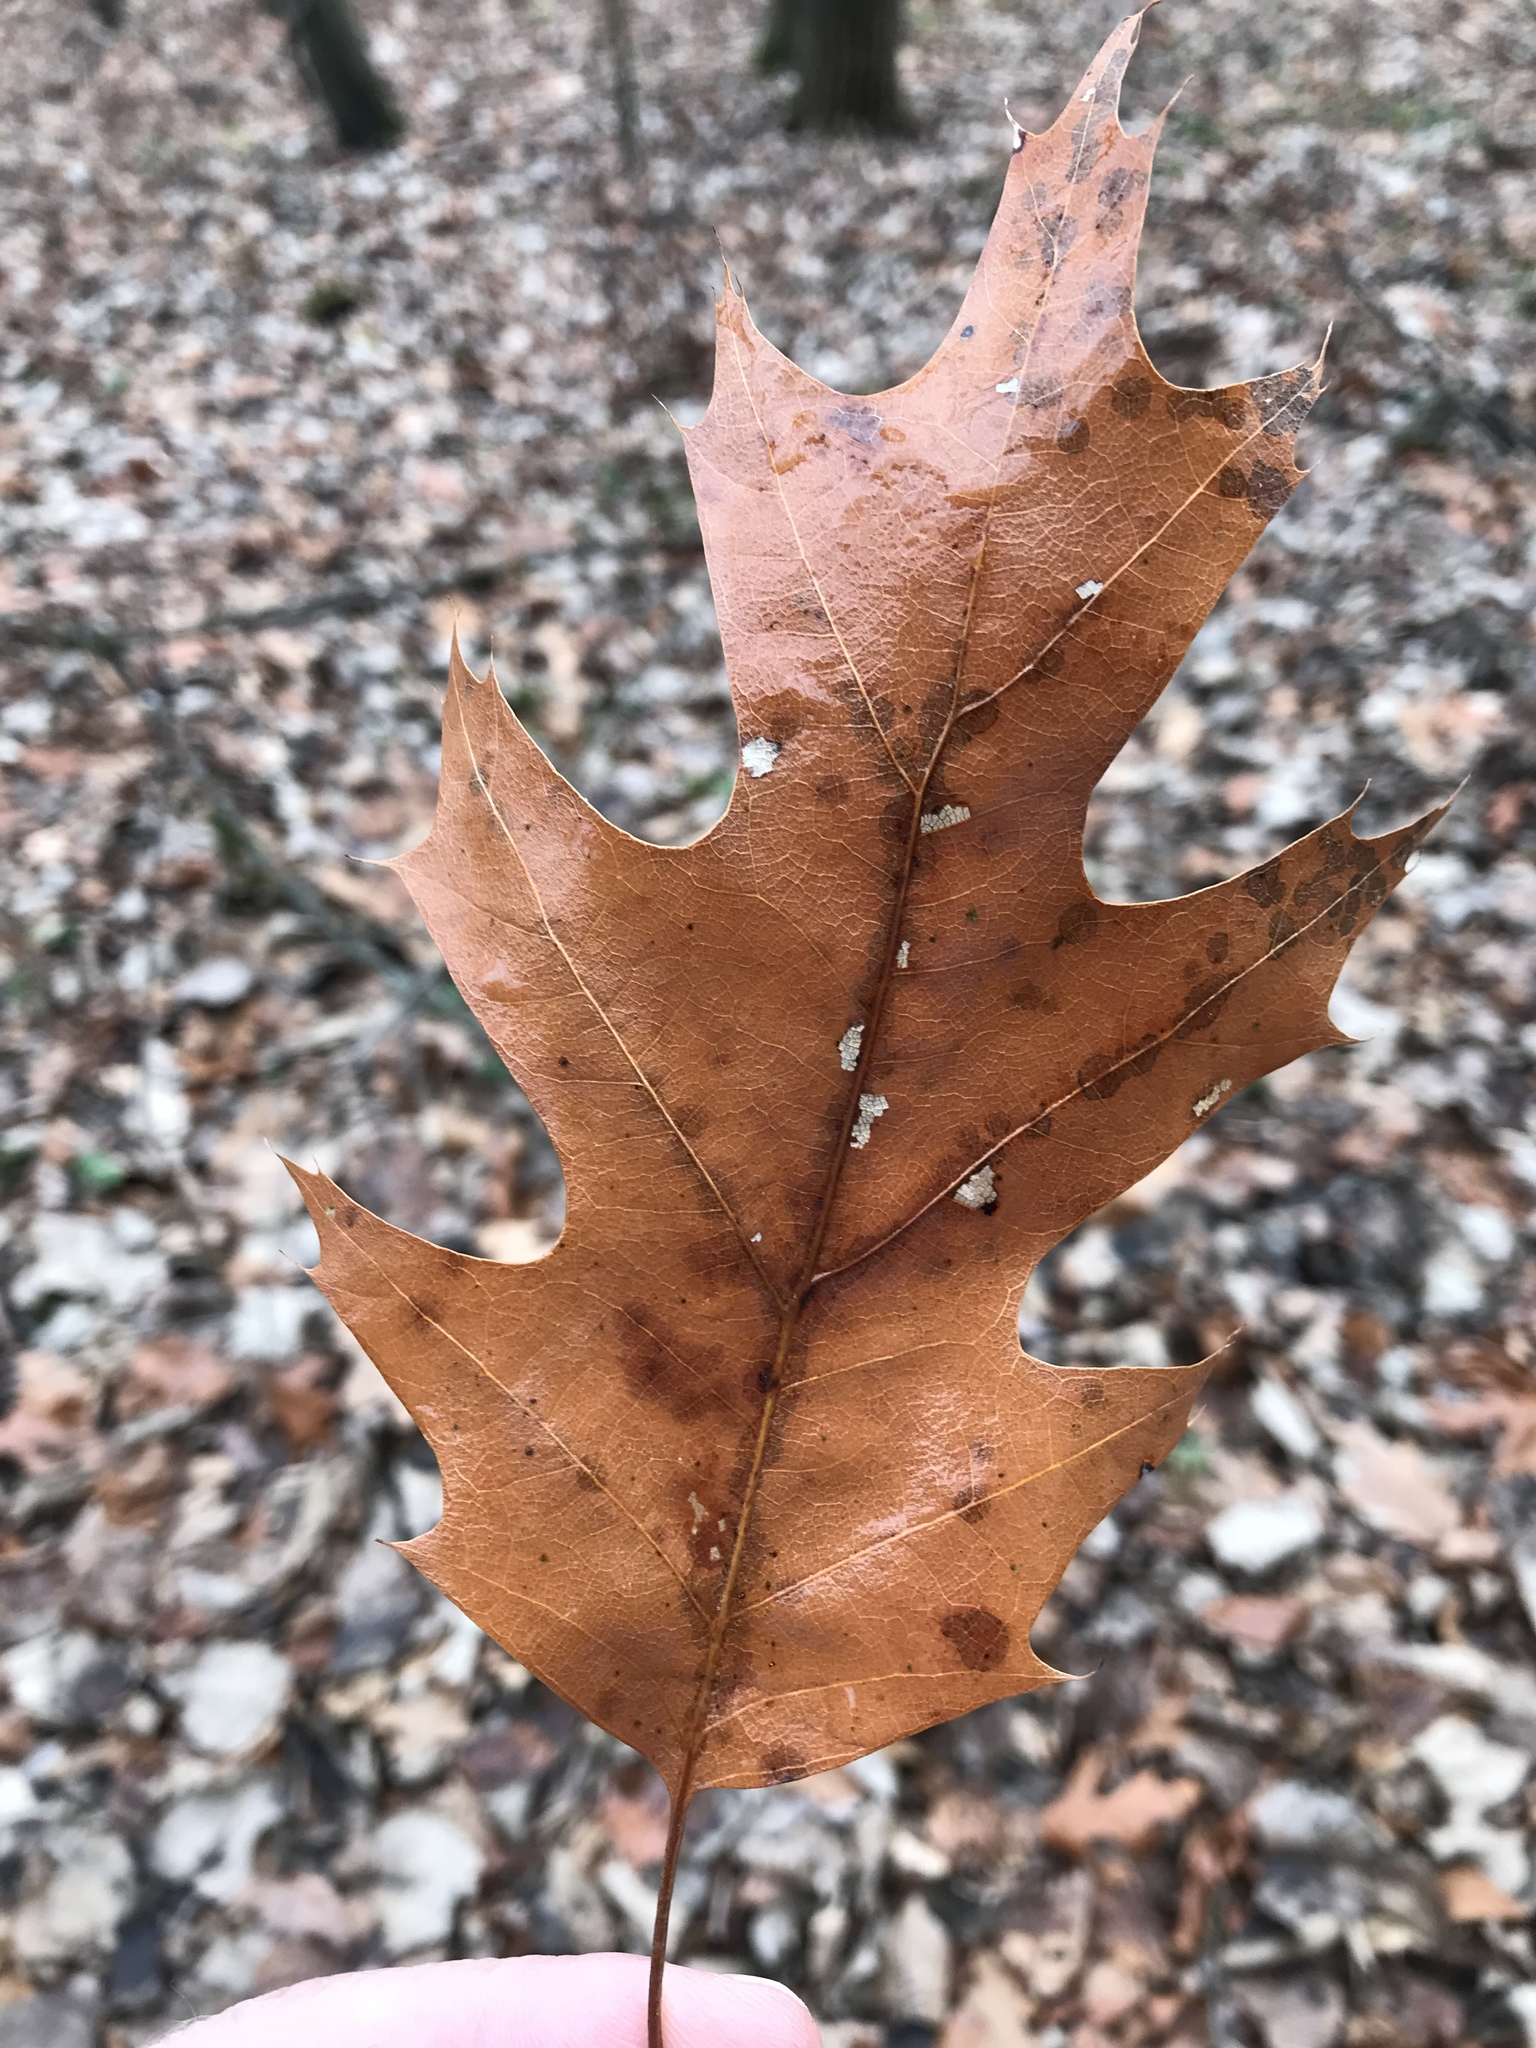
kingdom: Plantae
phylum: Tracheophyta
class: Magnoliopsida
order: Fagales
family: Fagaceae
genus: Quercus
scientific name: Quercus rubra
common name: Red oak
